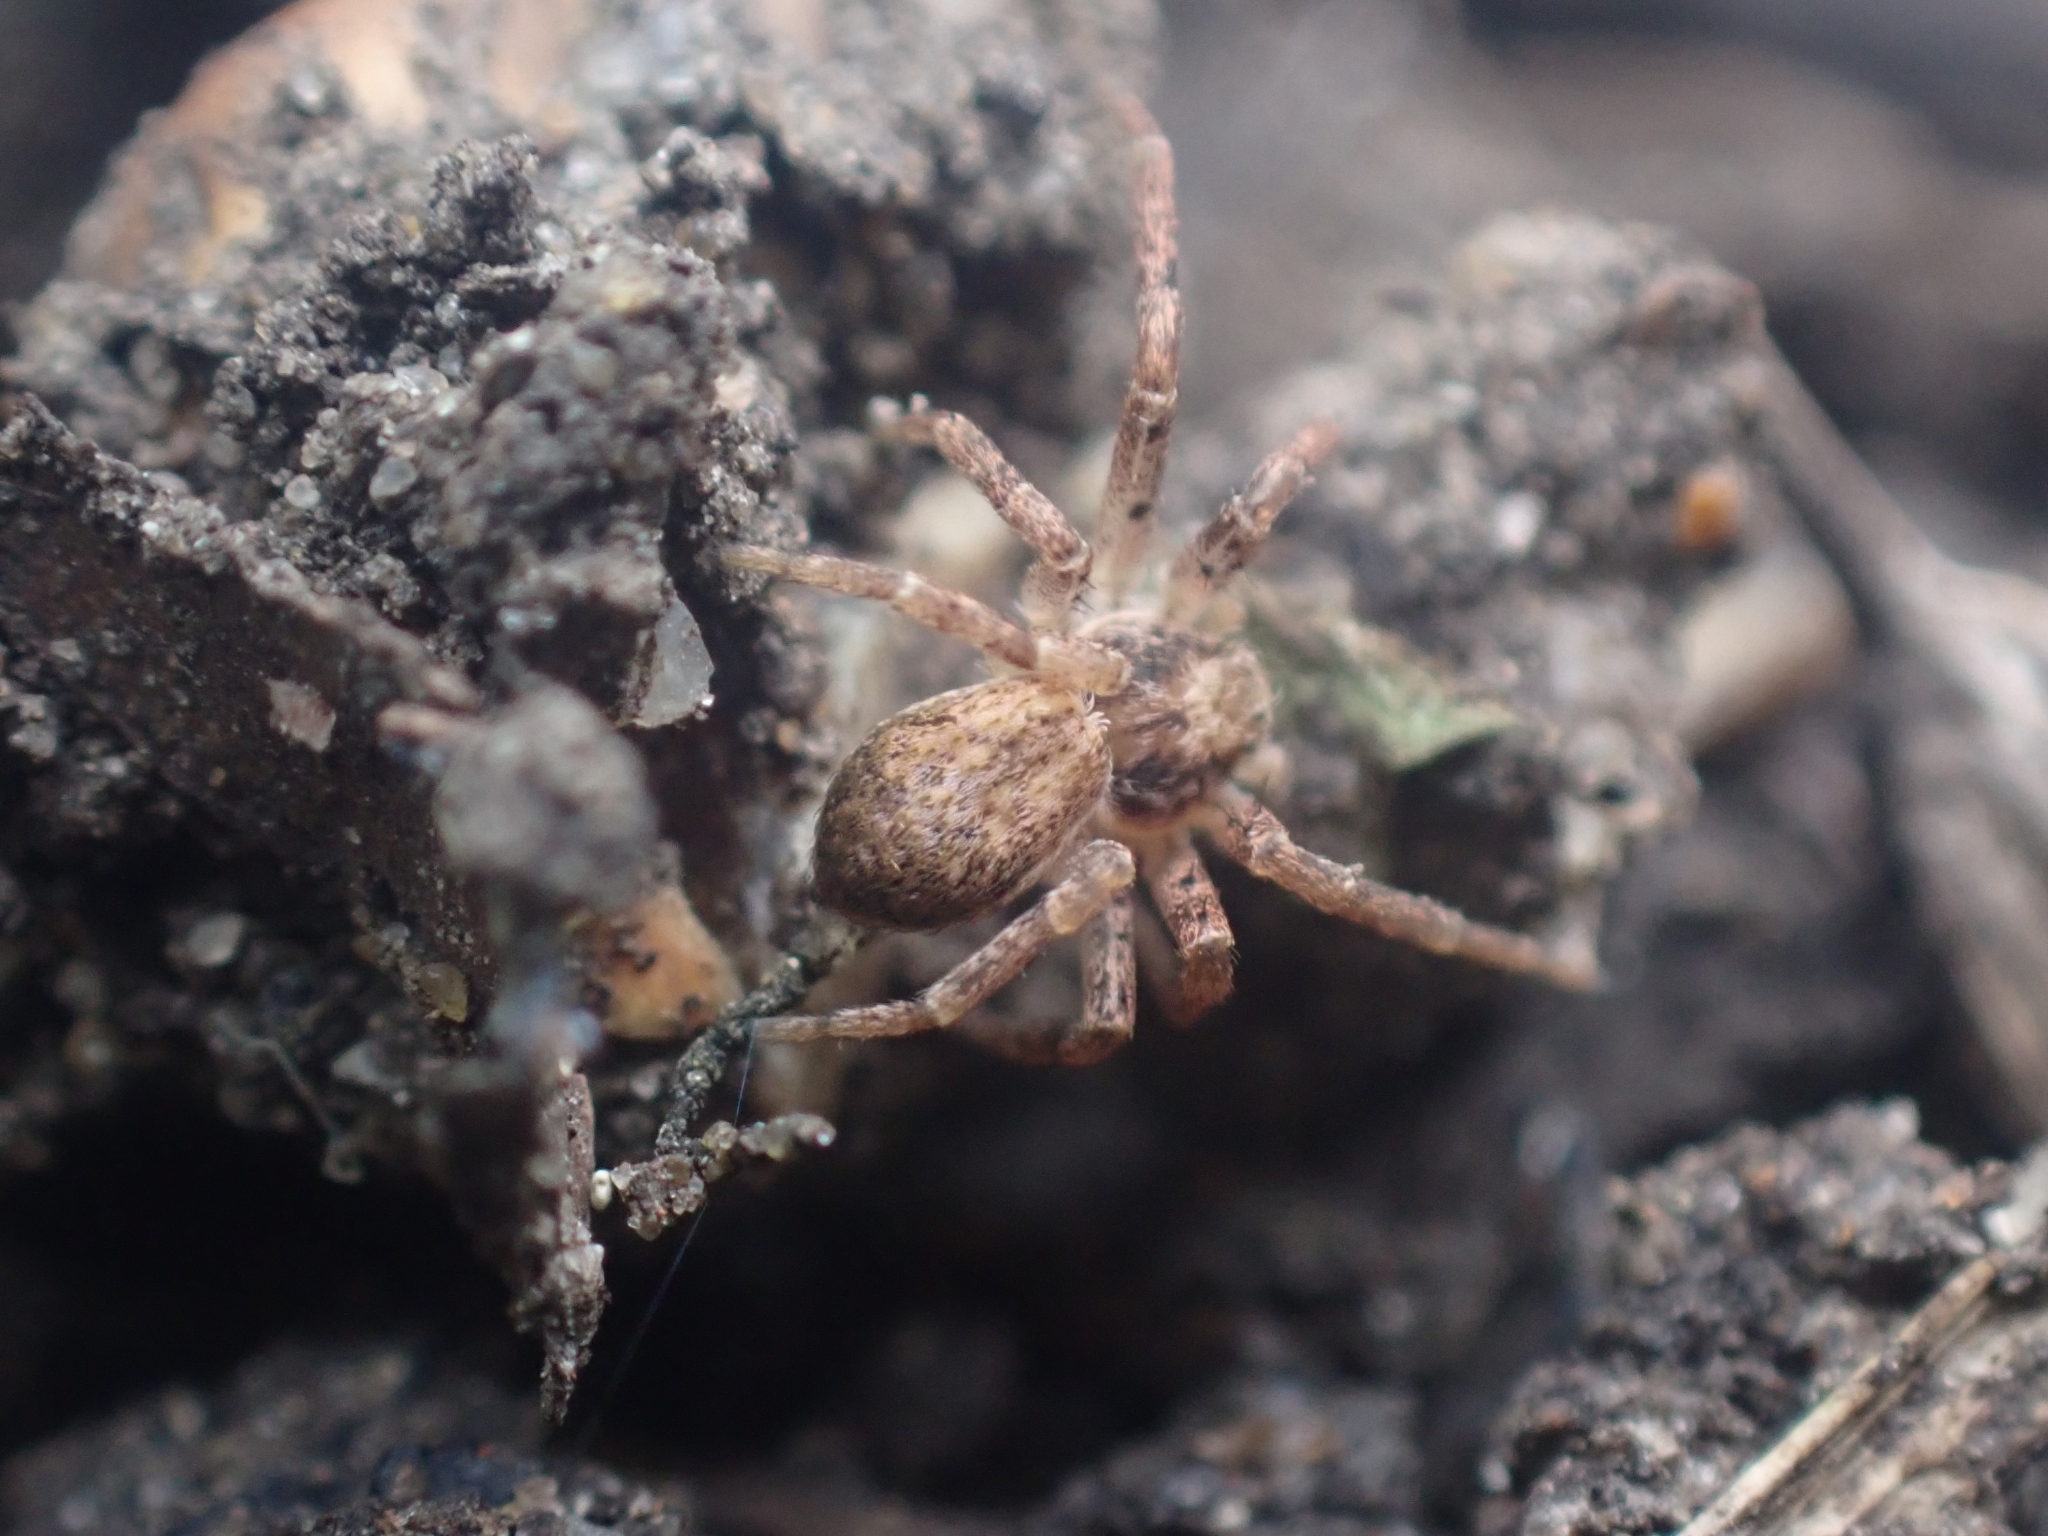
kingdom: Animalia
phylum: Arthropoda
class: Arachnida
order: Araneae
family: Philodromidae
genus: Philodromus
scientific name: Philodromus dispar
